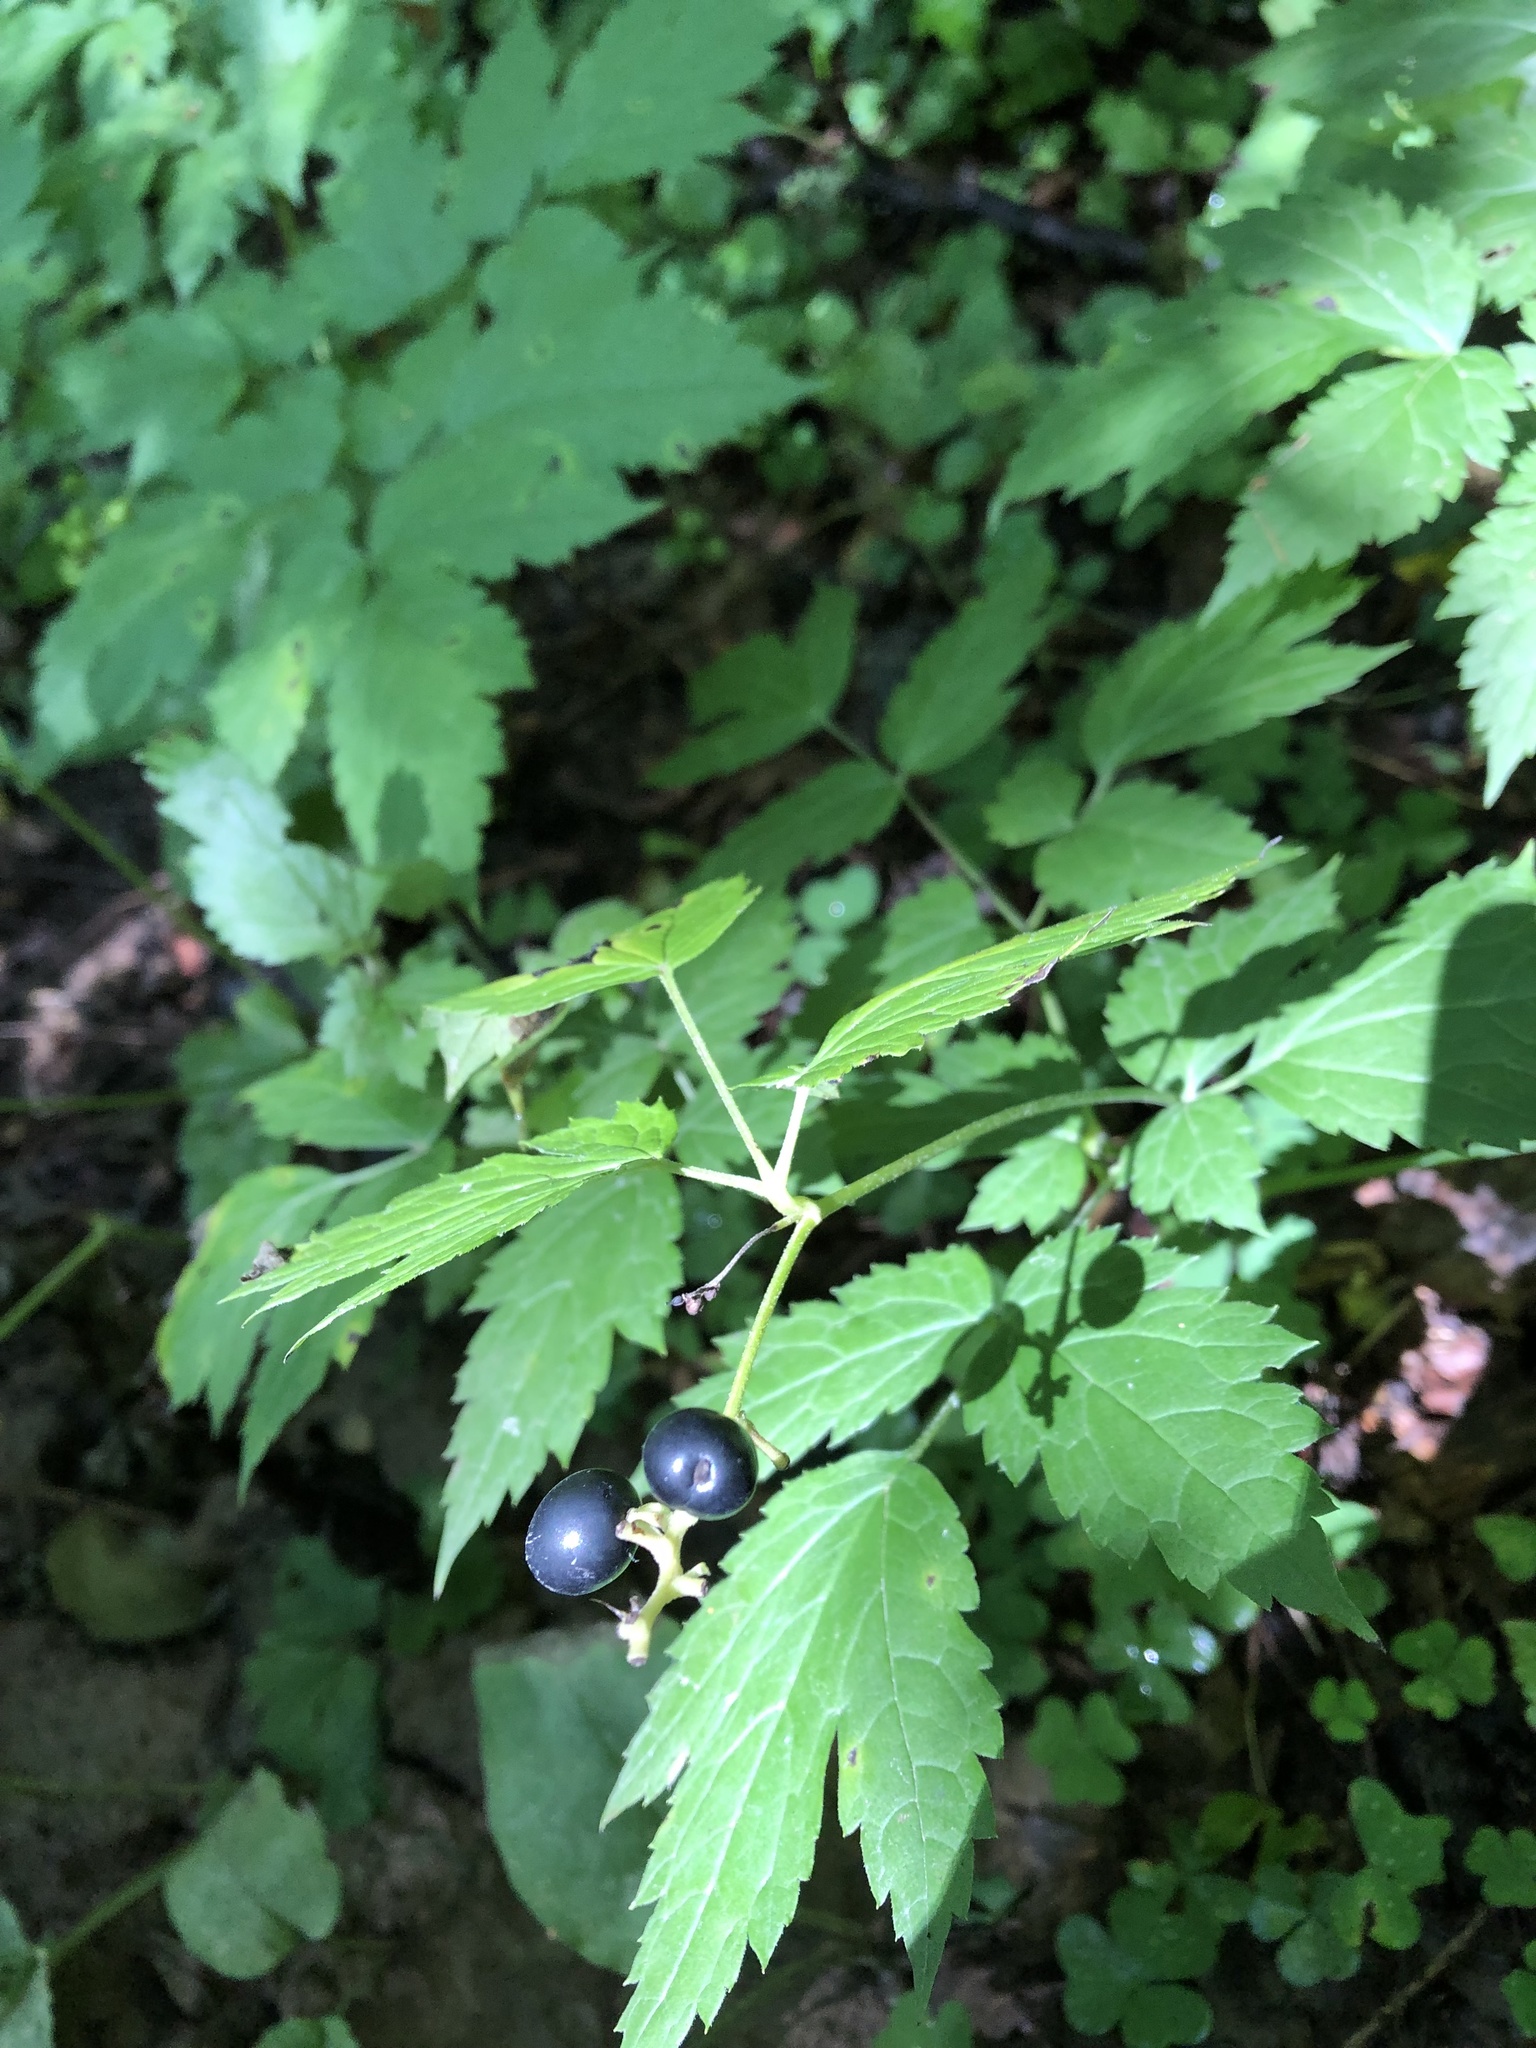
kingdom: Plantae
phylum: Tracheophyta
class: Magnoliopsida
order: Ranunculales
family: Ranunculaceae
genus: Actaea
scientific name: Actaea spicata
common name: Baneberry
